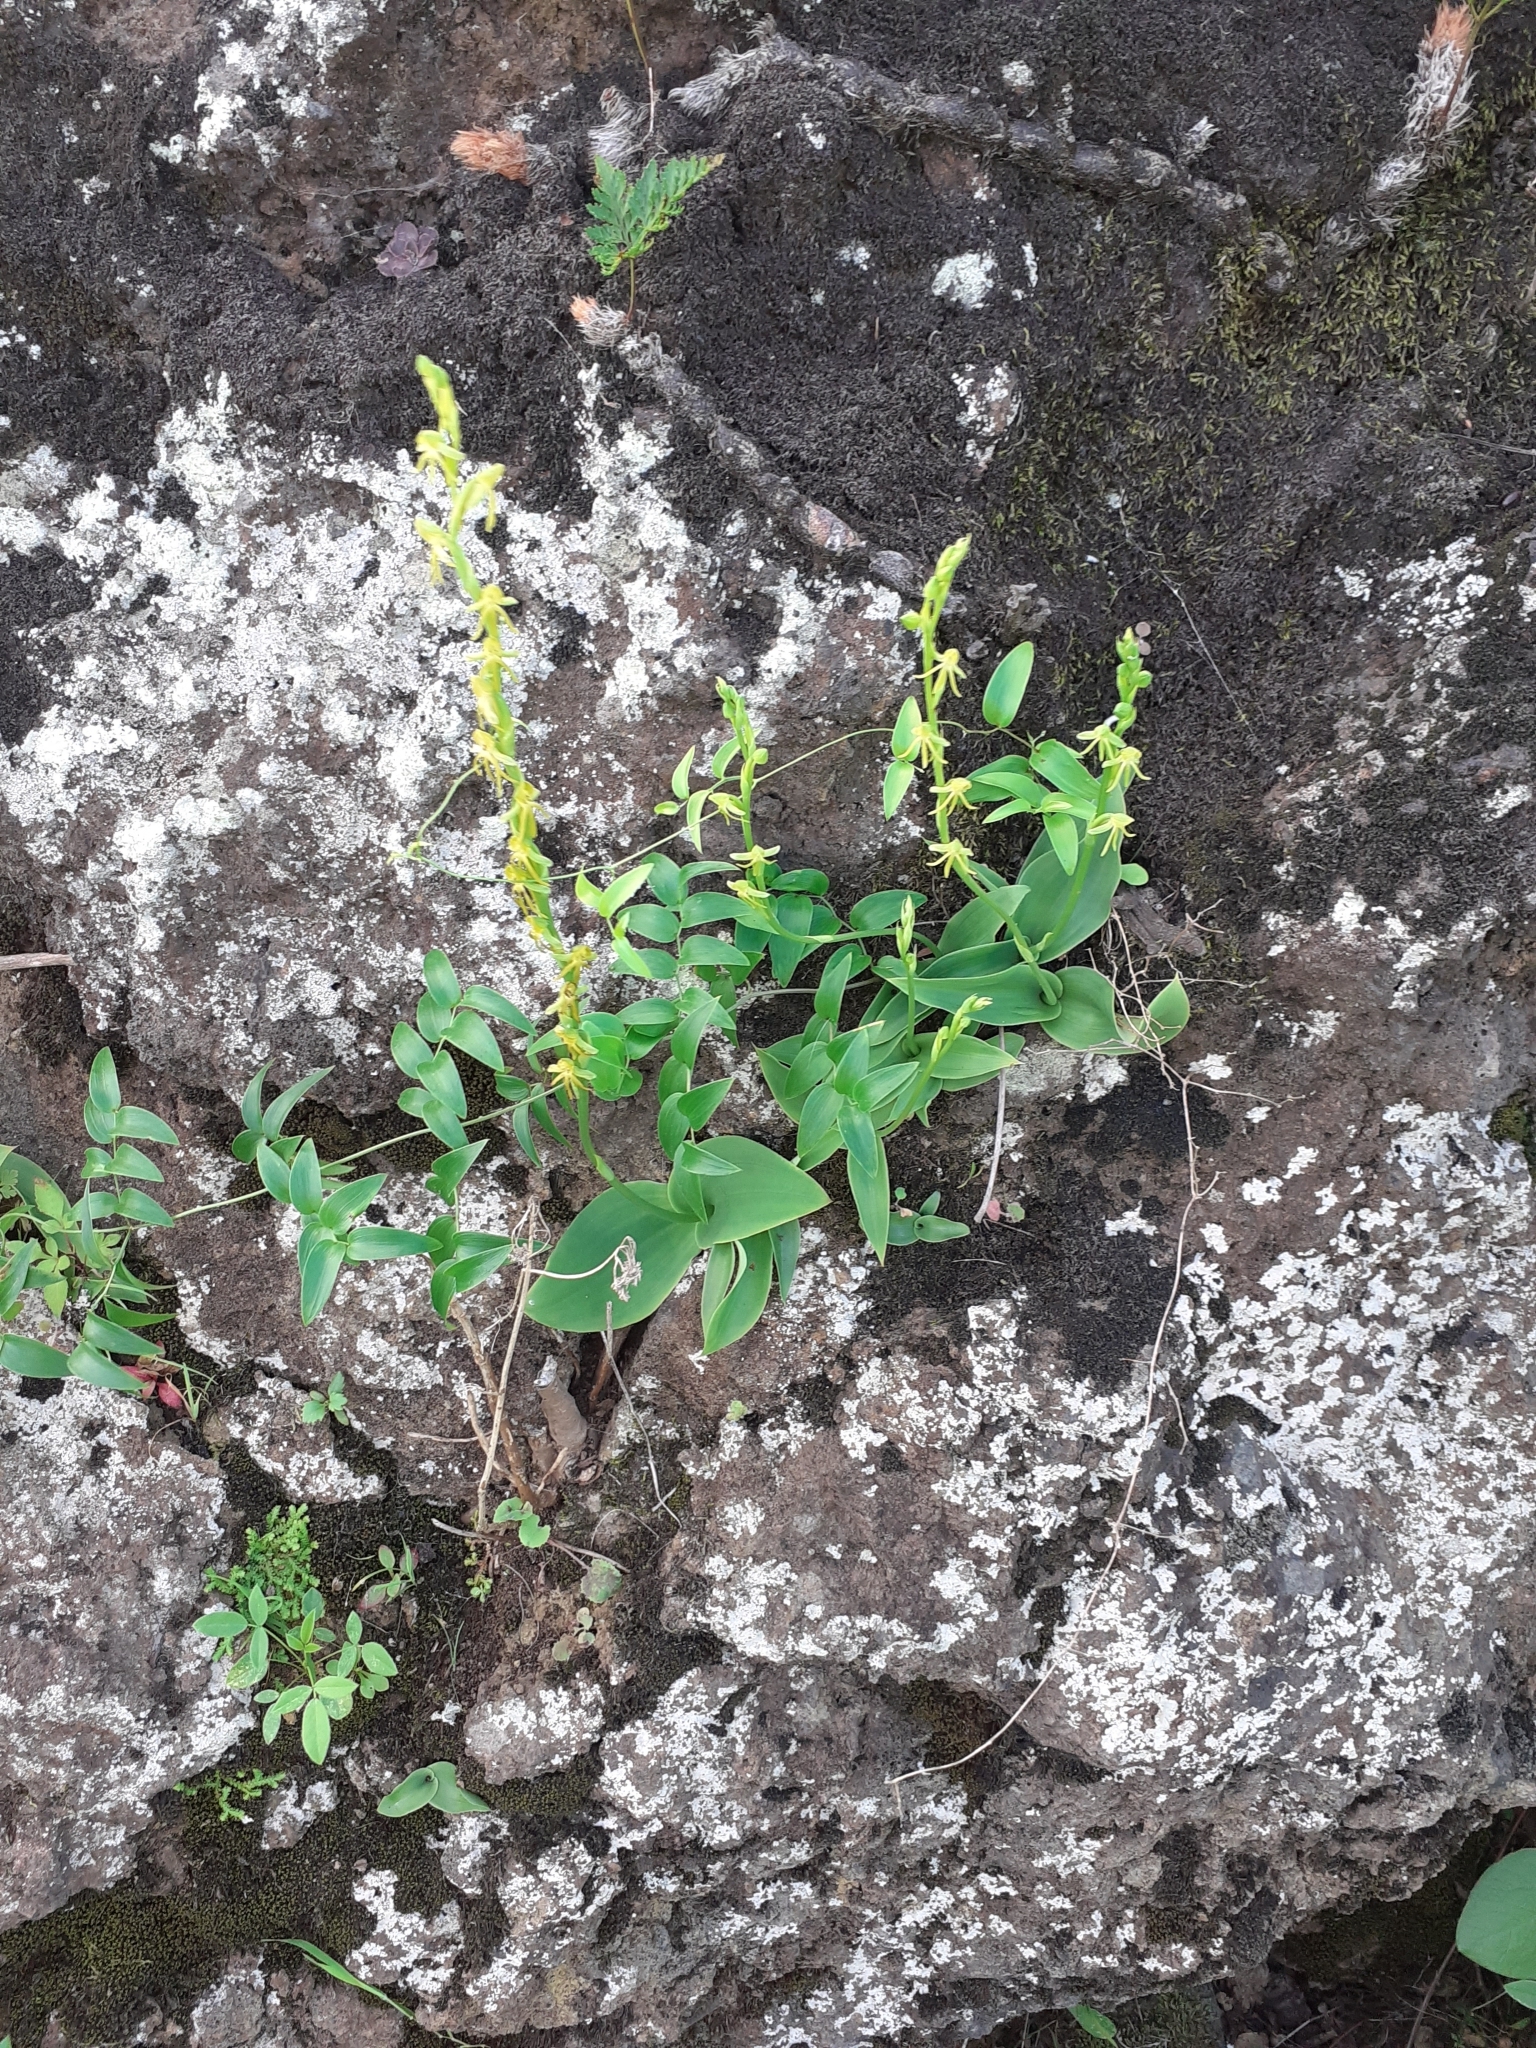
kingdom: Plantae
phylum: Tracheophyta
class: Liliopsida
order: Asparagales
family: Orchidaceae
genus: Habenaria
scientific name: Habenaria tridactylites
